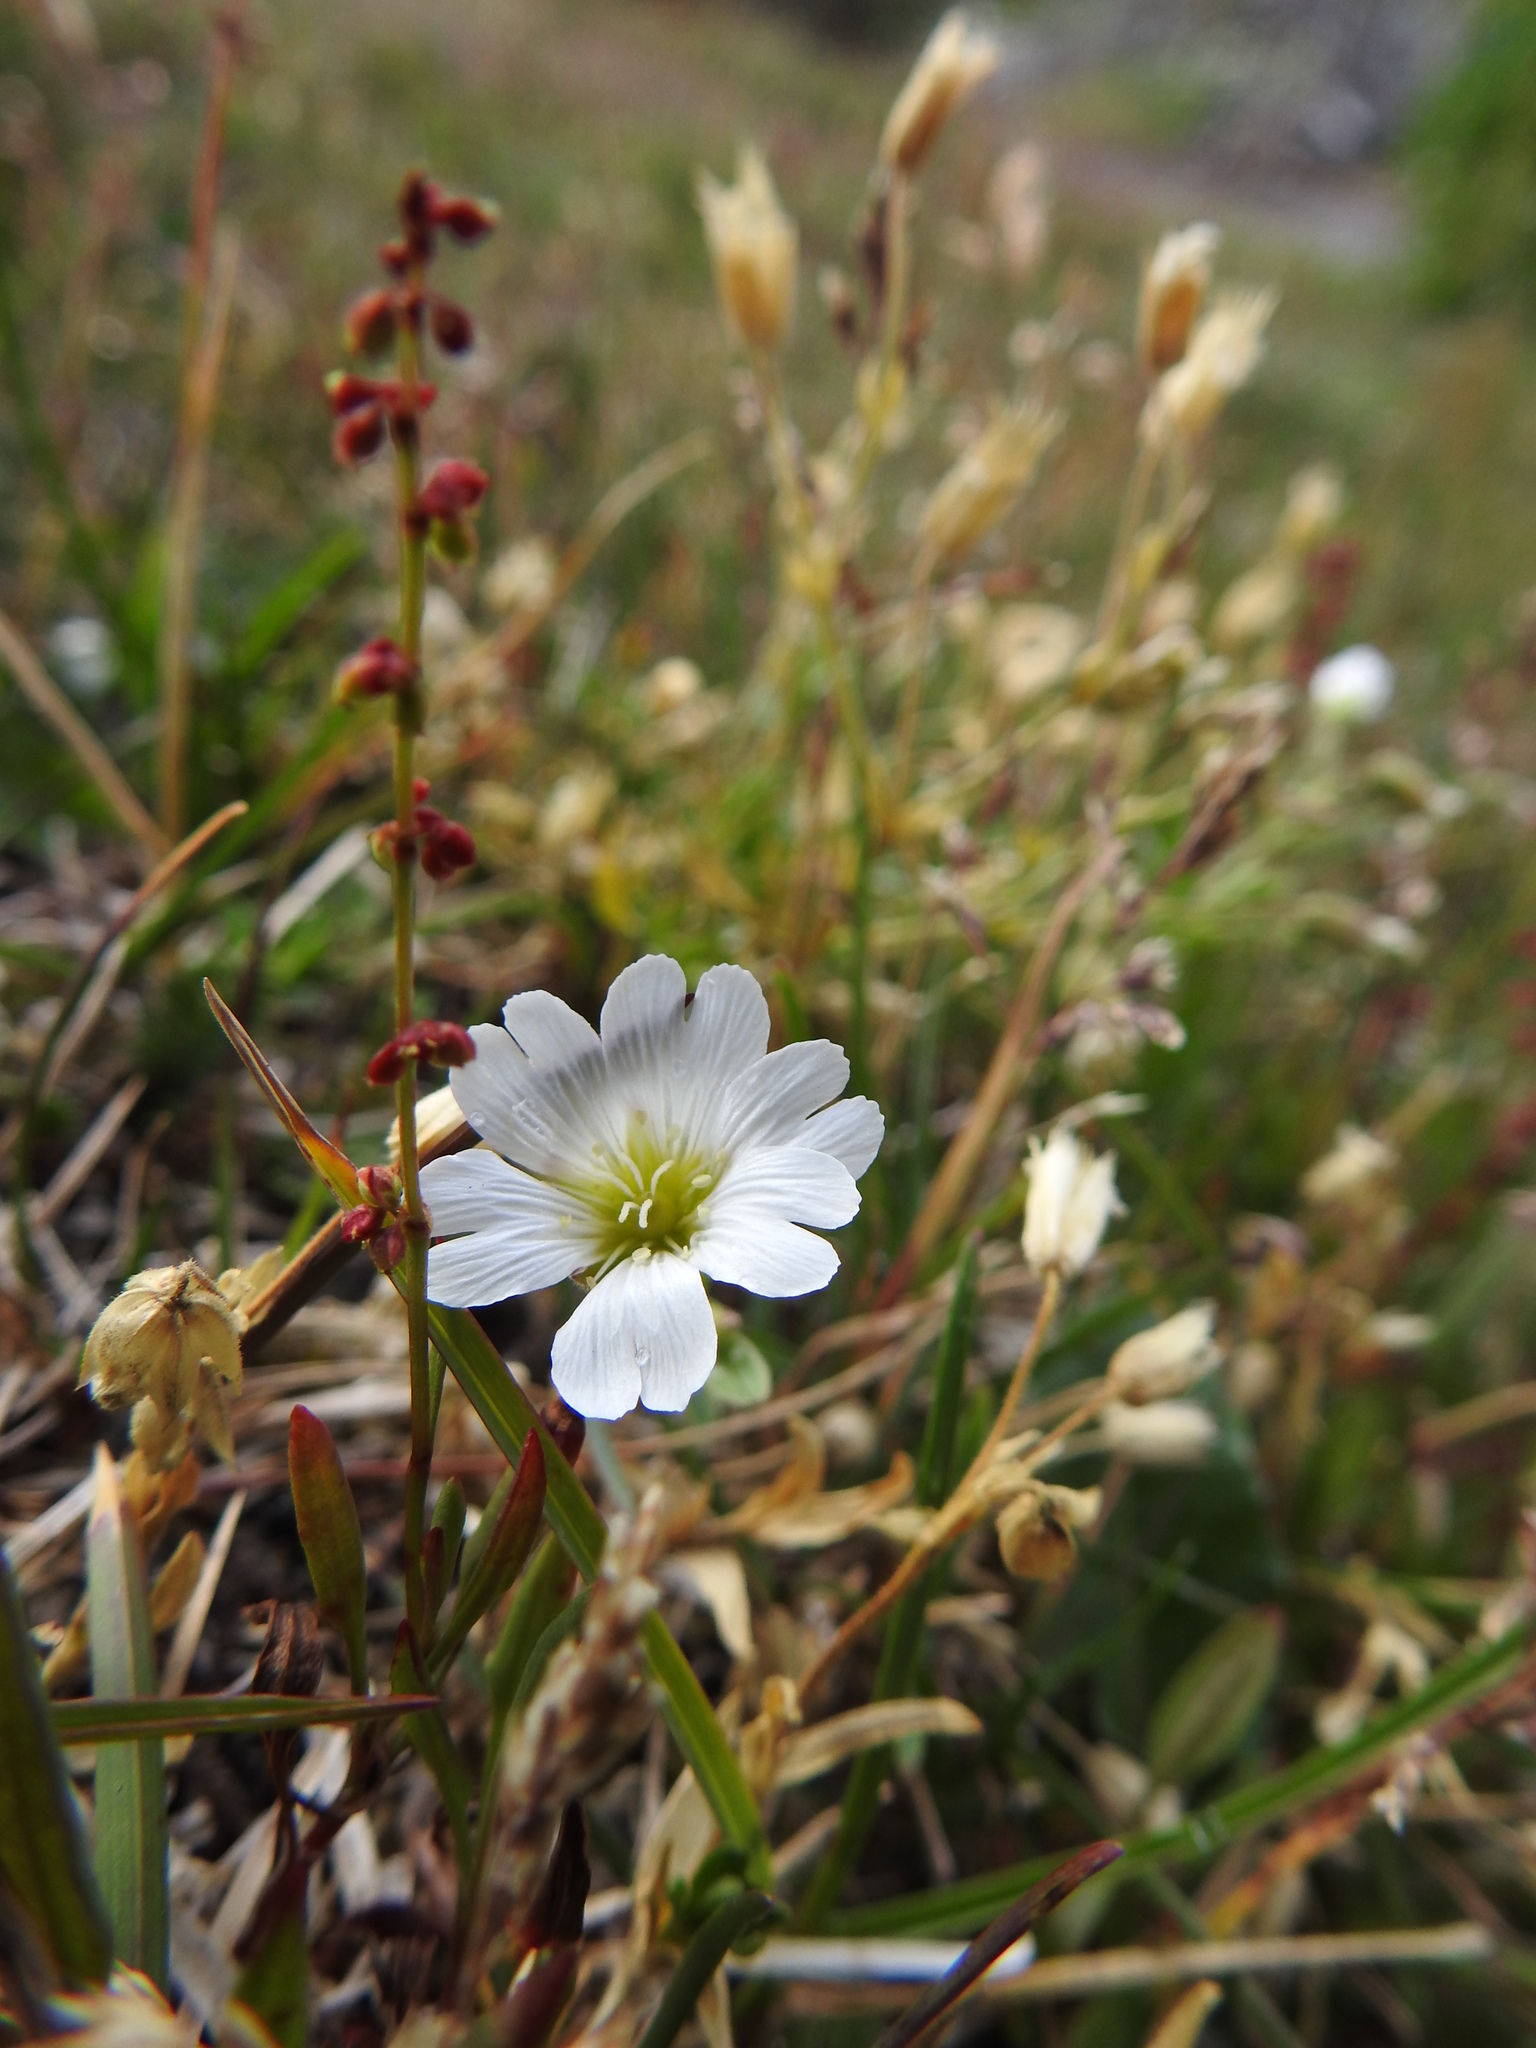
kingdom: Plantae
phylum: Tracheophyta
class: Magnoliopsida
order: Caryophyllales
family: Caryophyllaceae
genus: Cerastium
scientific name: Cerastium arvense
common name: Field mouse-ear
